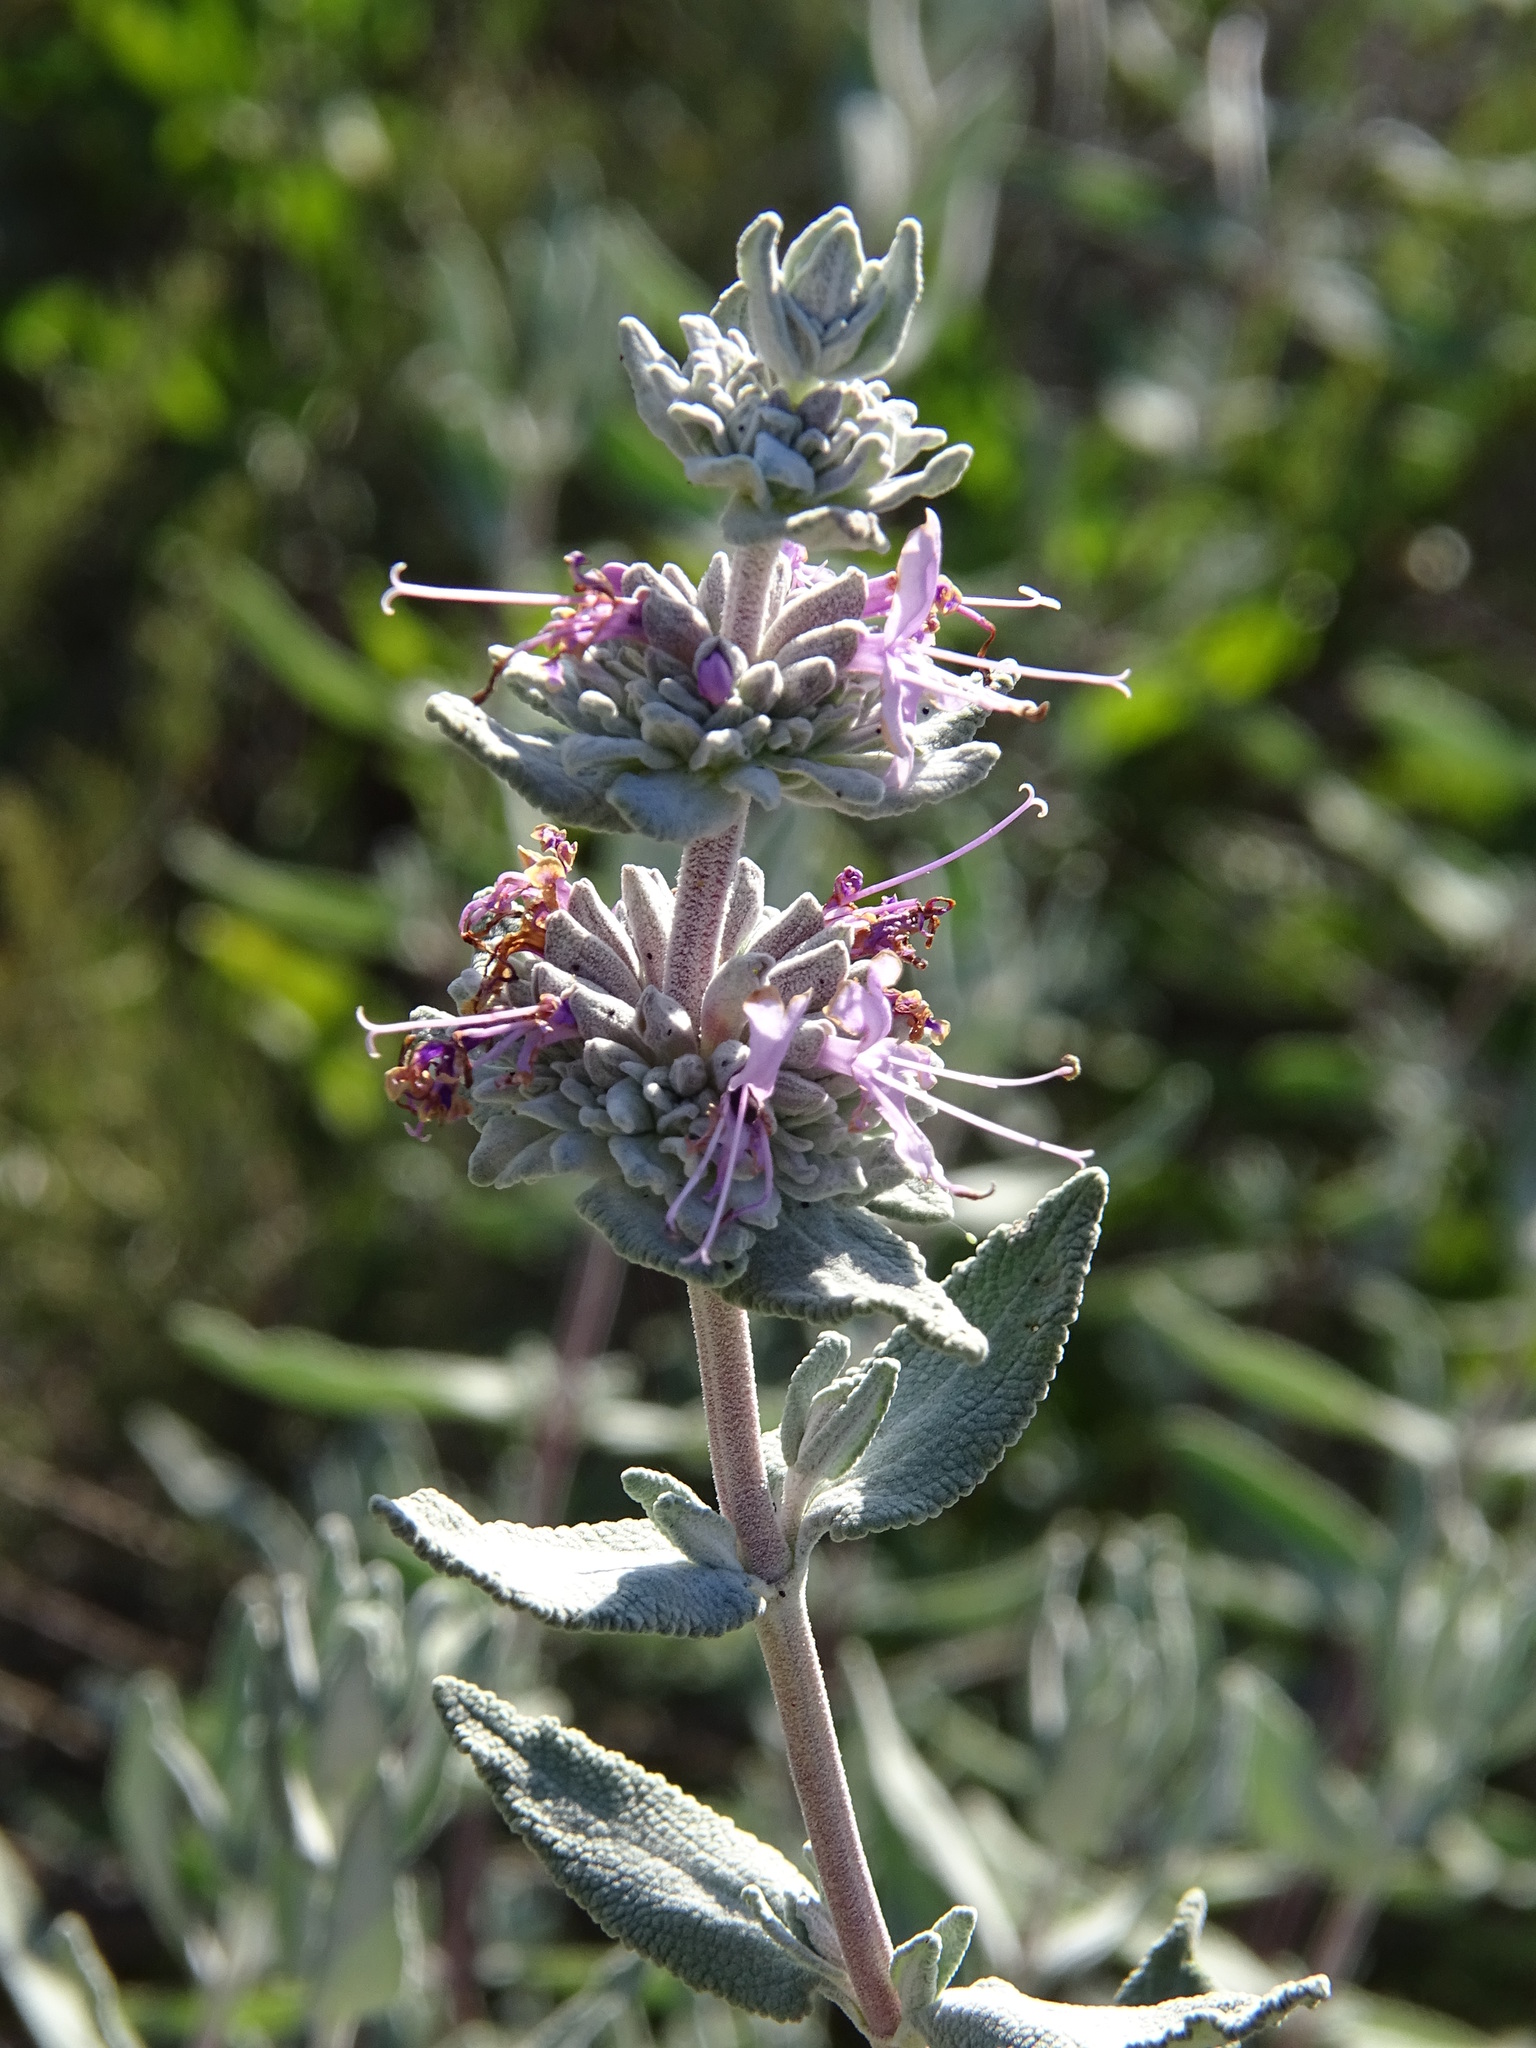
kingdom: Plantae
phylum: Tracheophyta
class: Magnoliopsida
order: Lamiales
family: Lamiaceae
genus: Salvia
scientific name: Salvia leucophylla
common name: Purple sage
